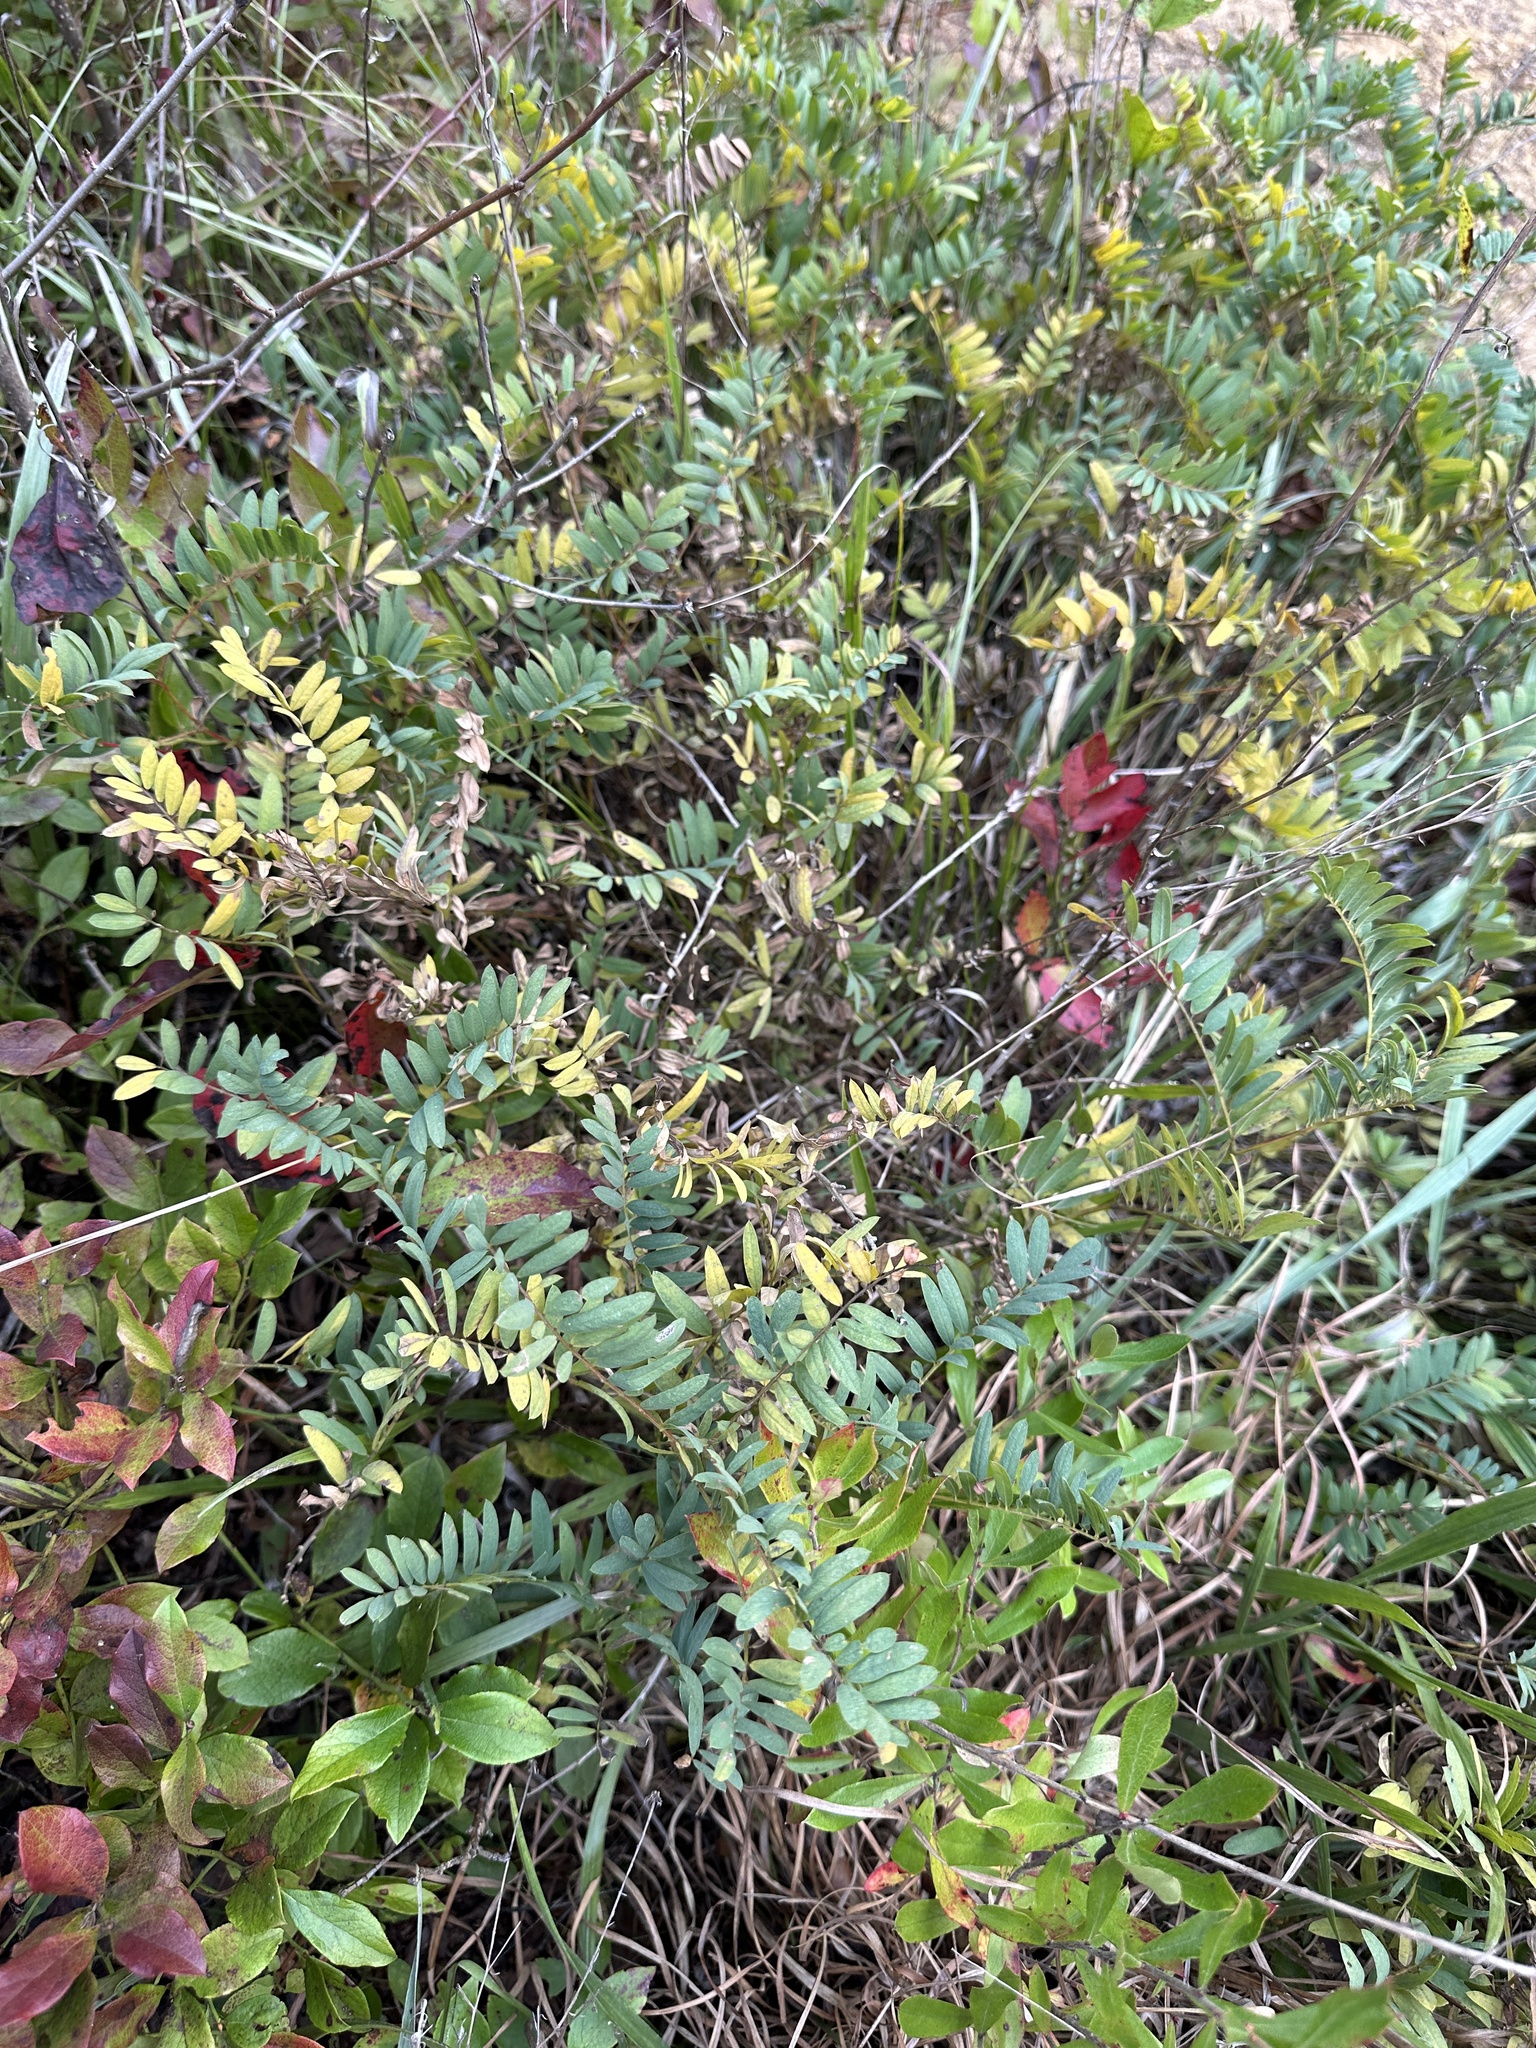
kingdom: Plantae
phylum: Tracheophyta
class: Magnoliopsida
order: Fabales
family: Fabaceae
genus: Tephrosia
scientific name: Tephrosia virginiana
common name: Rabbit-pea
